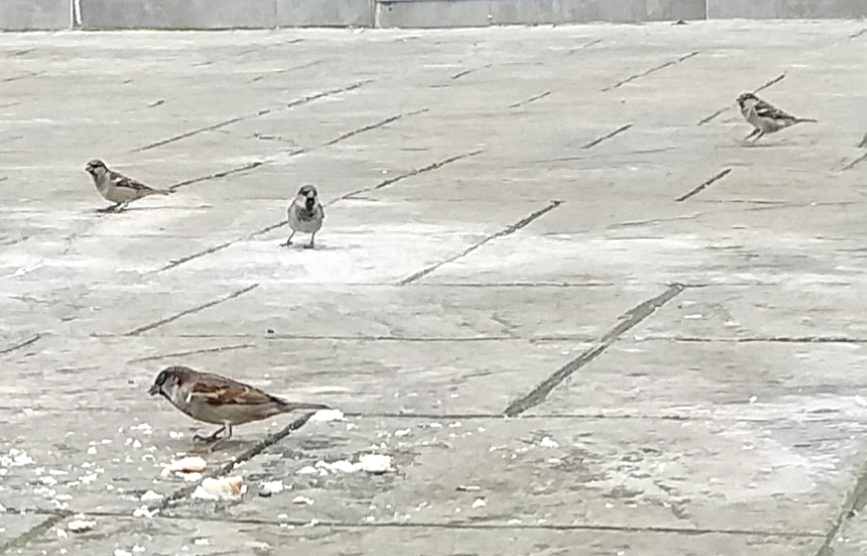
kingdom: Animalia
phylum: Chordata
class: Aves
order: Passeriformes
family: Passeridae
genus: Passer
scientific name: Passer domesticus
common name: House sparrow
